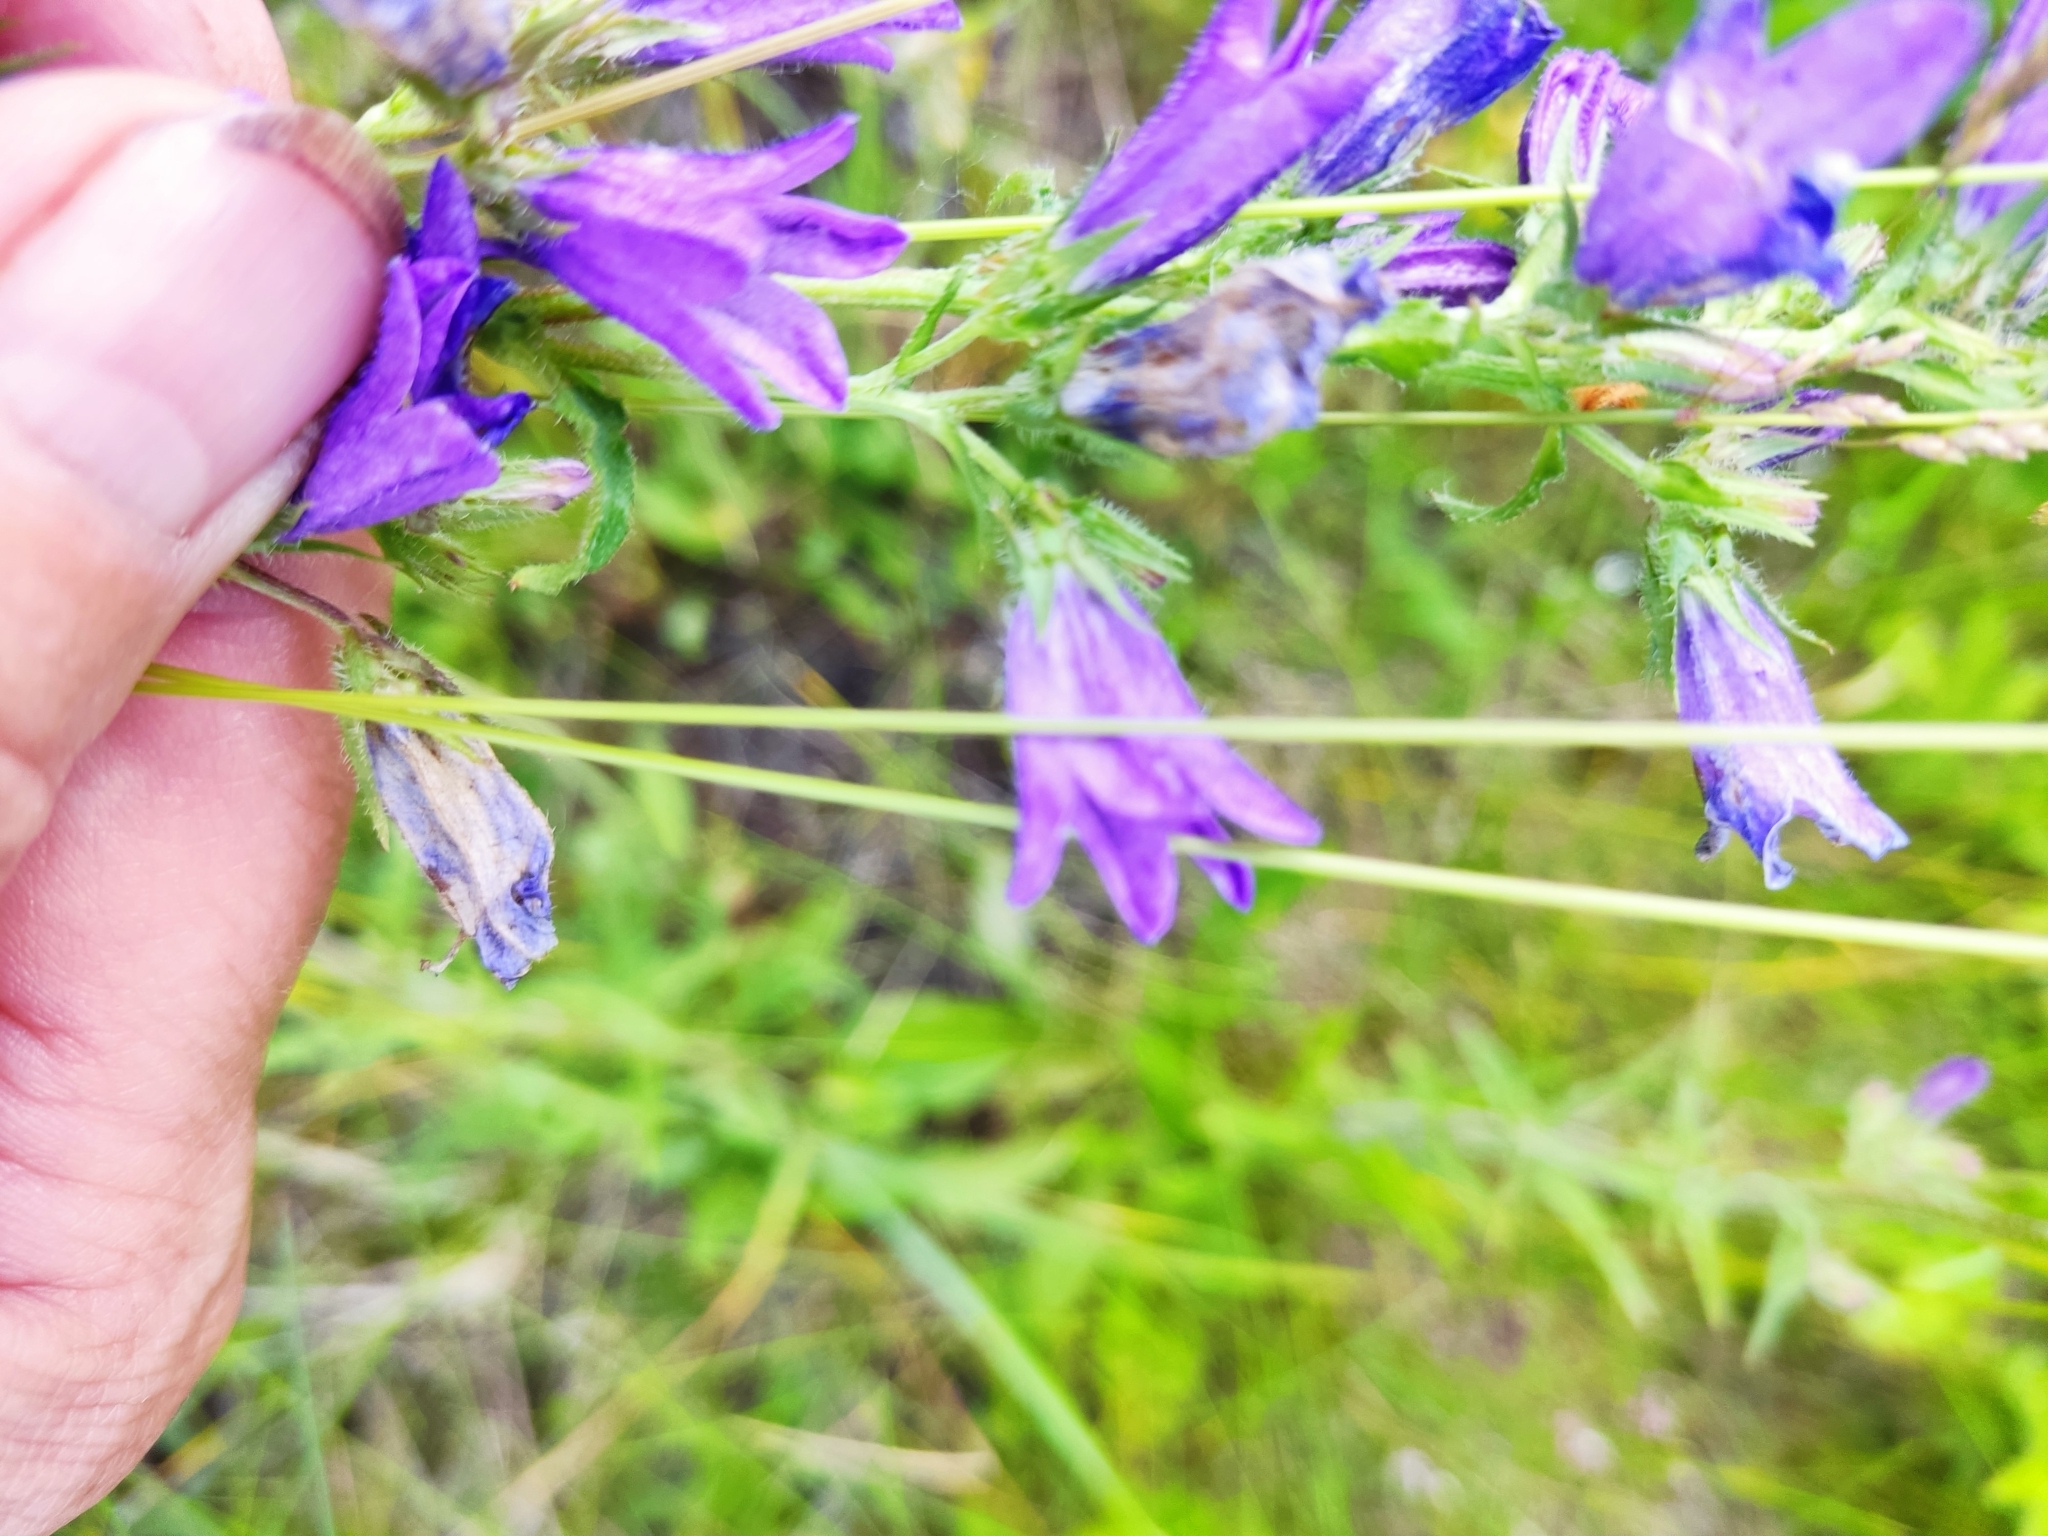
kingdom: Plantae
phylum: Tracheophyta
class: Magnoliopsida
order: Asterales
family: Campanulaceae
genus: Campanula
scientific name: Campanula sibirica
